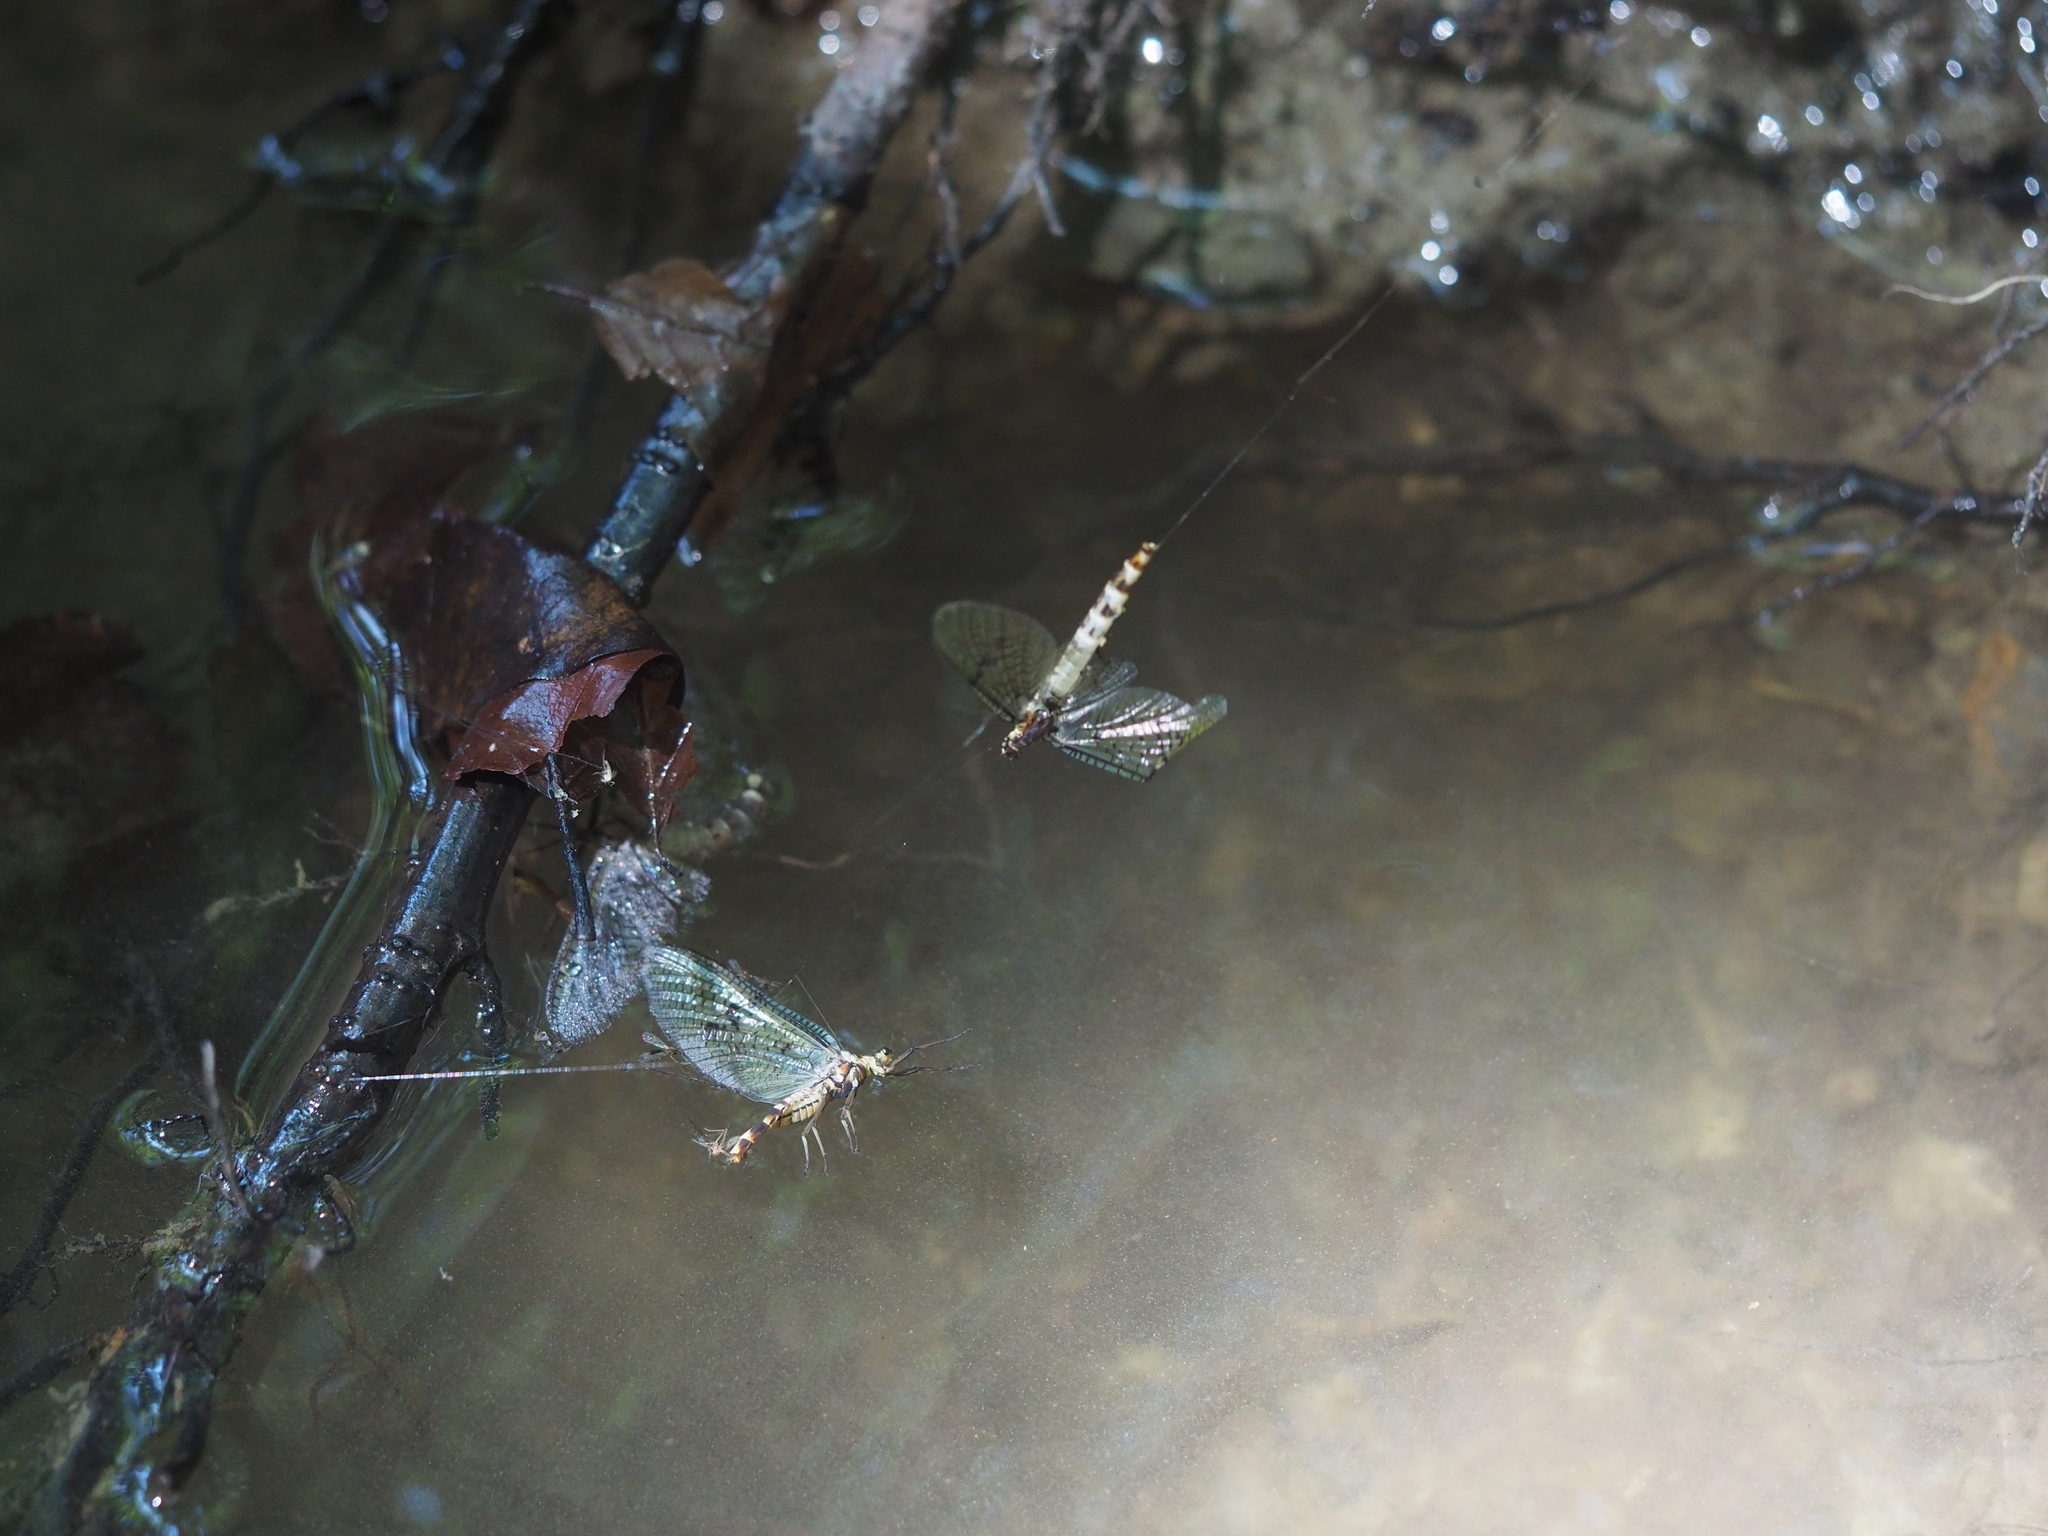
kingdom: Animalia
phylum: Arthropoda
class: Insecta
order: Ephemeroptera
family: Ephemeridae
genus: Ephemera
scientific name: Ephemera danica
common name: Green dun
